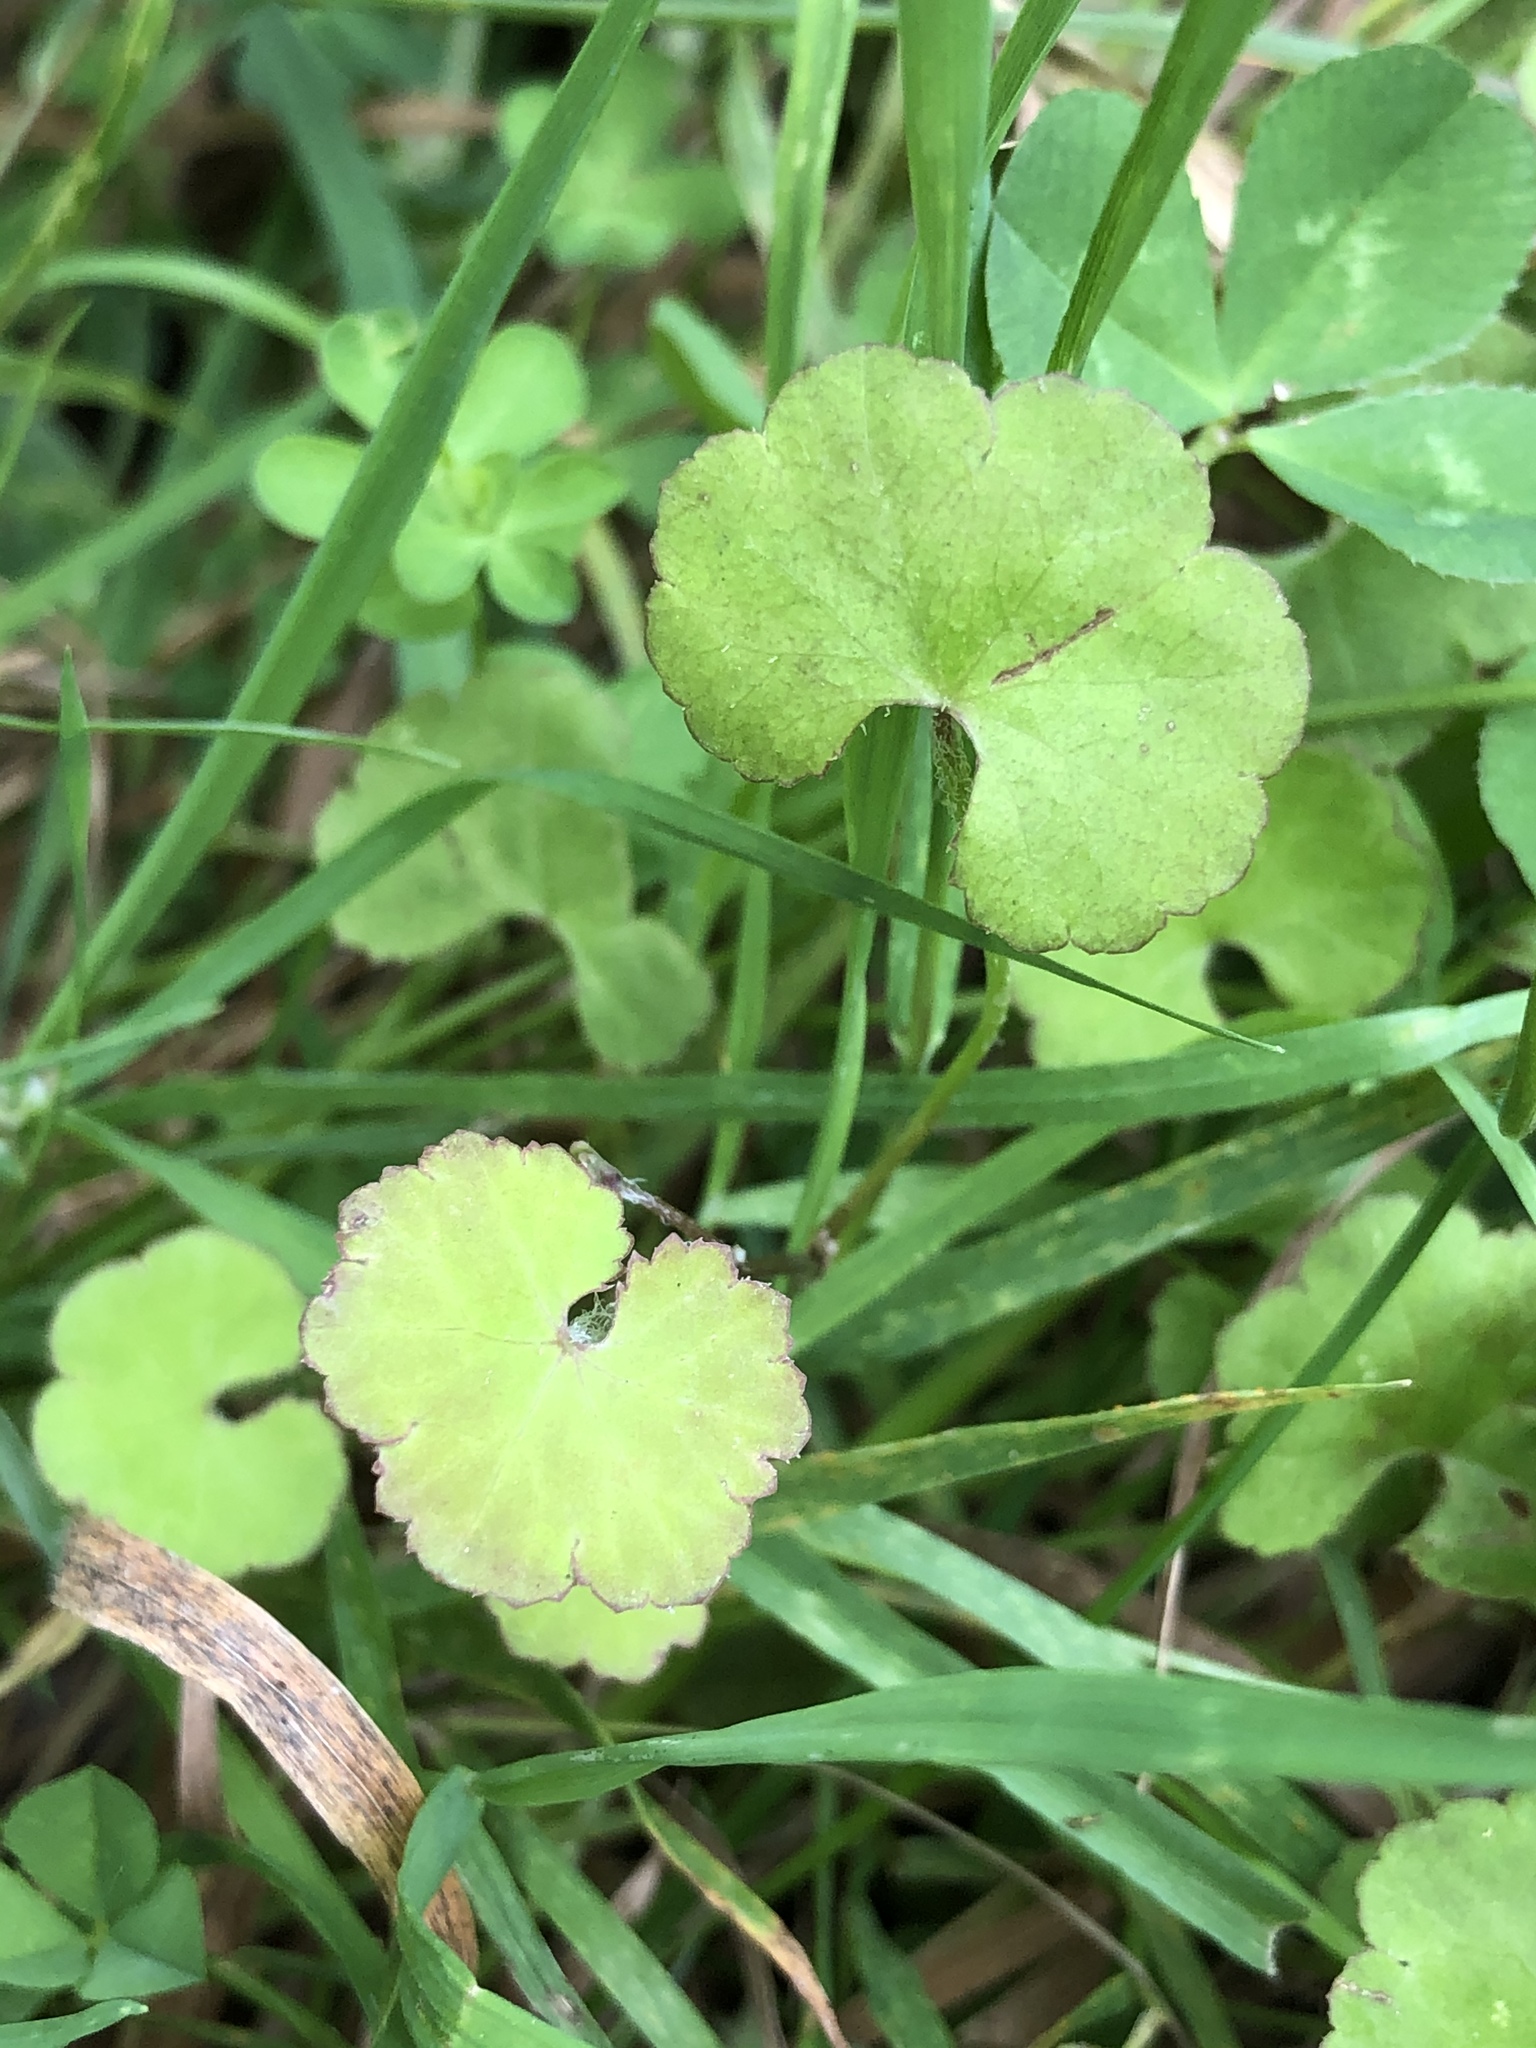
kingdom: Plantae
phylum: Tracheophyta
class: Magnoliopsida
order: Apiales
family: Araliaceae
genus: Hydrocotyle
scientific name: Hydrocotyle novae-zeelandiae
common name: New zealand pennywort
